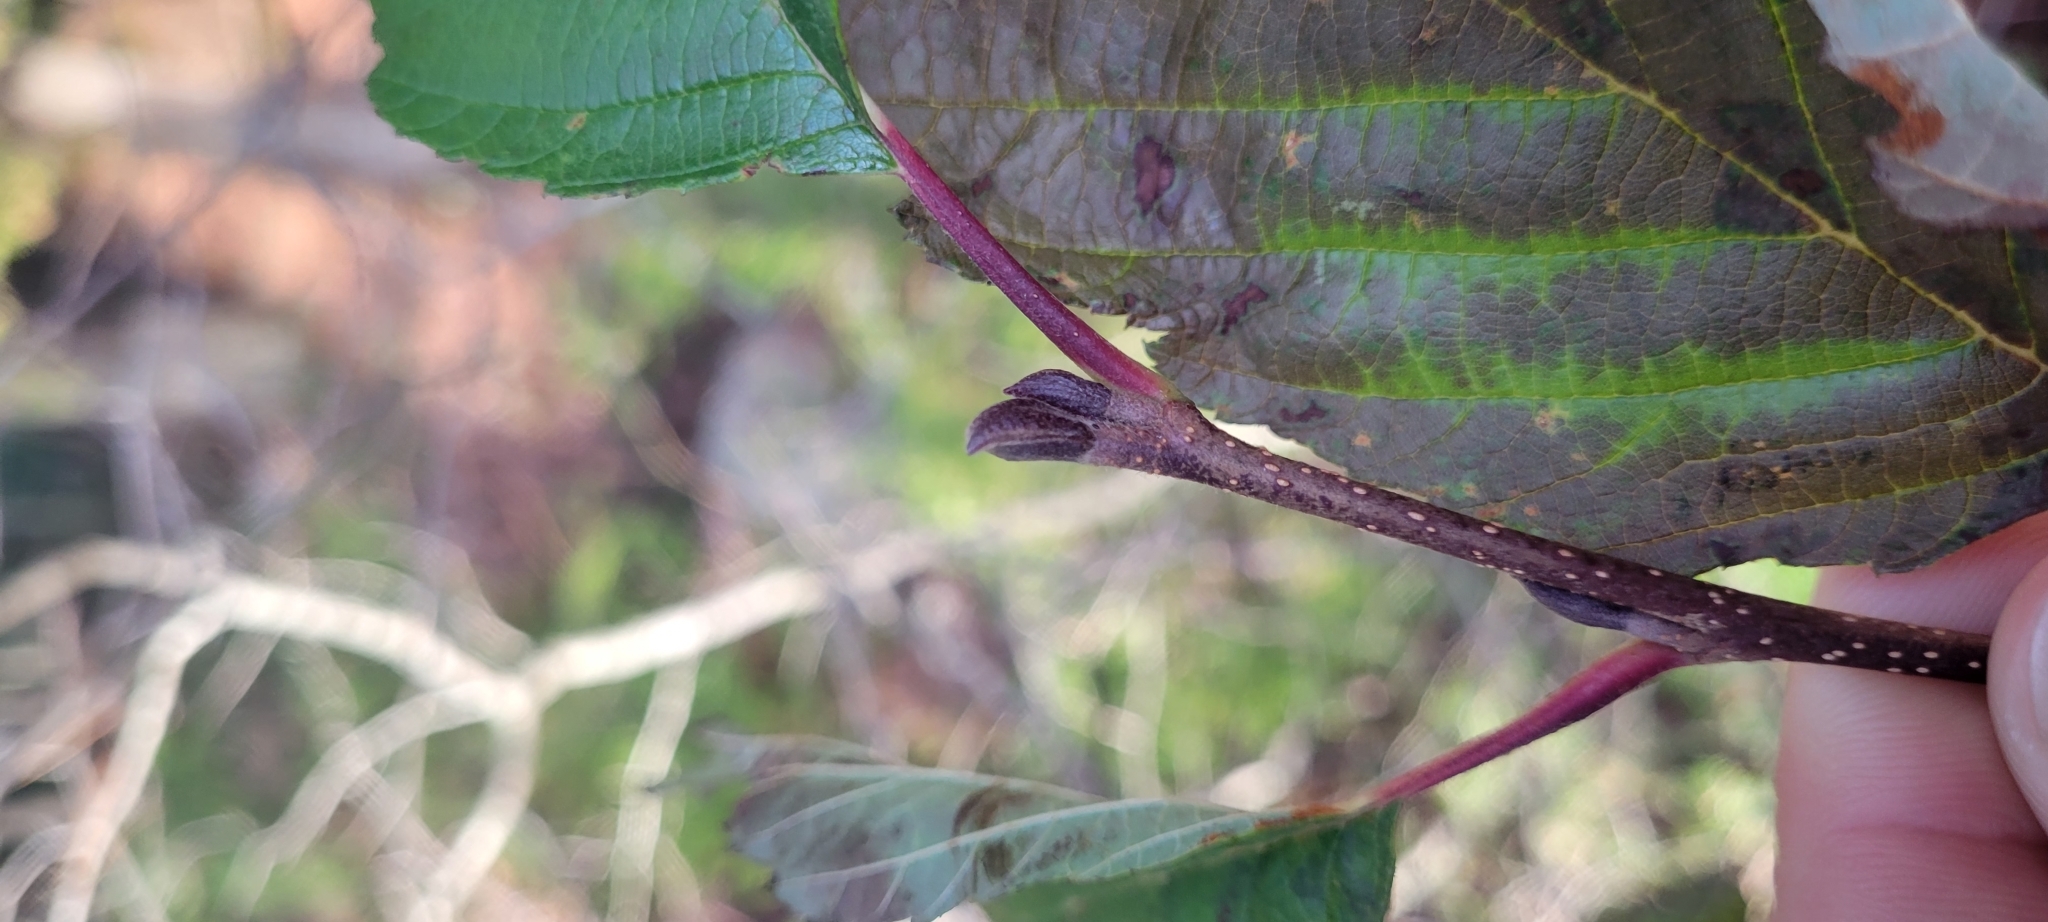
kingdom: Plantae
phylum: Tracheophyta
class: Magnoliopsida
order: Fagales
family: Betulaceae
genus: Alnus
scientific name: Alnus incana
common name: Grey alder
